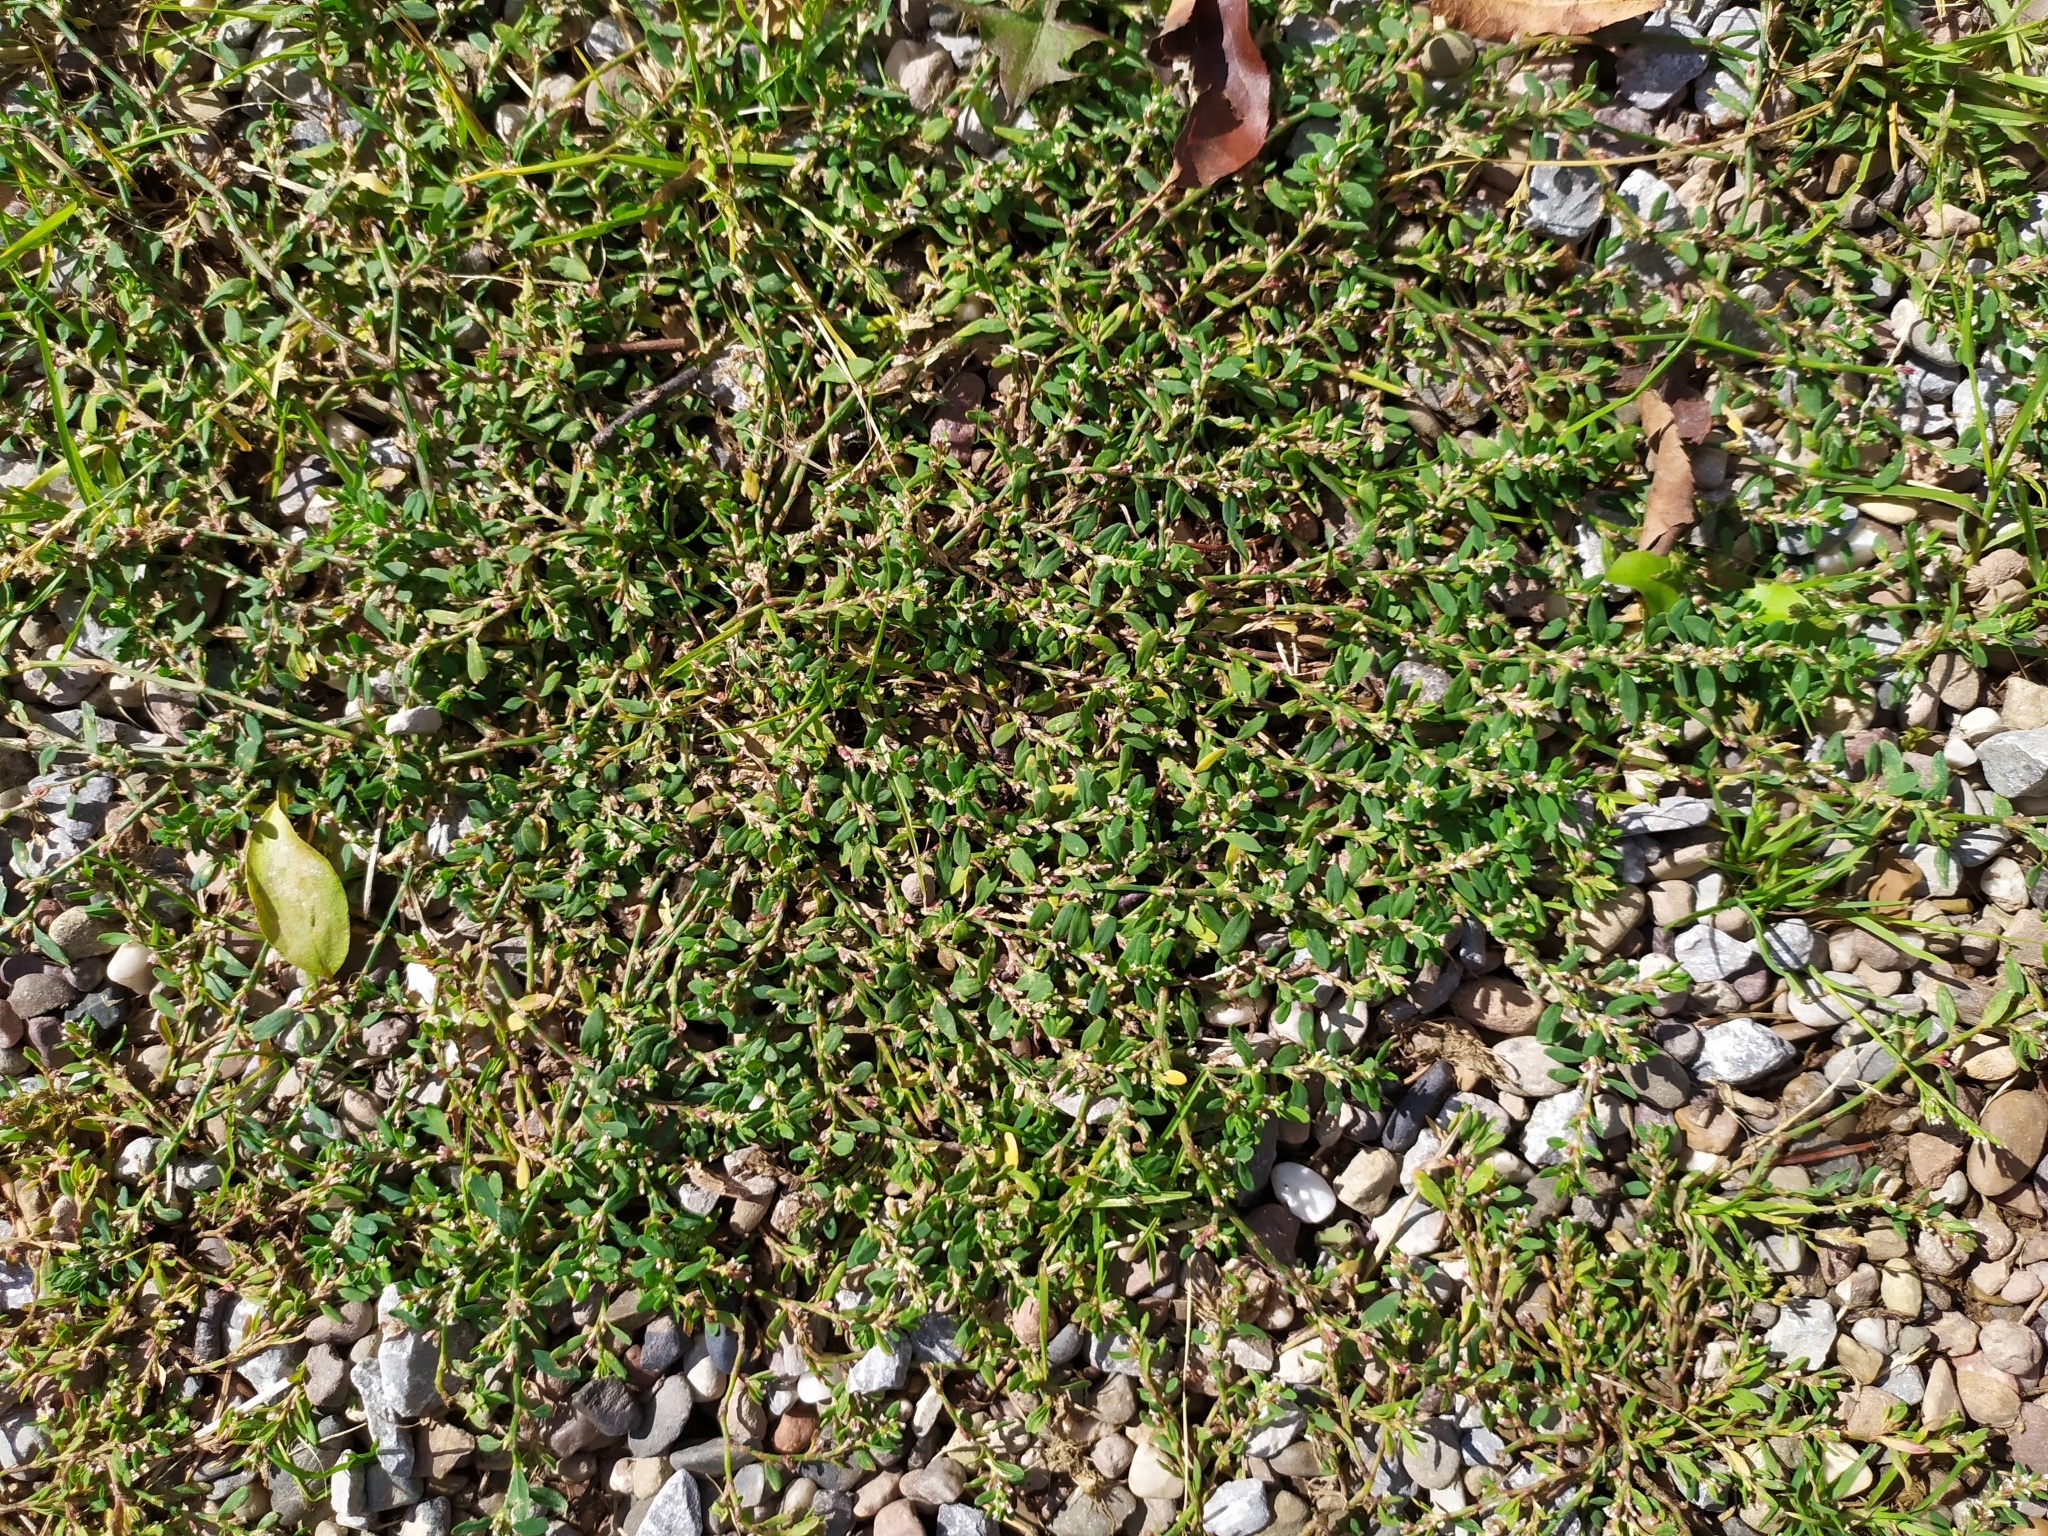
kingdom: Plantae
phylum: Tracheophyta
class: Magnoliopsida
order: Caryophyllales
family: Polygonaceae
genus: Polygonum
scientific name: Polygonum arenastrum
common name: Equal-leaved knotgrass
